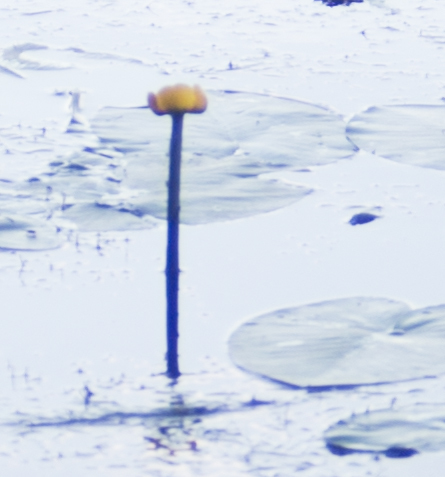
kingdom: Plantae
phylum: Tracheophyta
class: Magnoliopsida
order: Nymphaeales
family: Nymphaeaceae
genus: Nuphar
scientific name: Nuphar lutea
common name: Yellow water-lily
